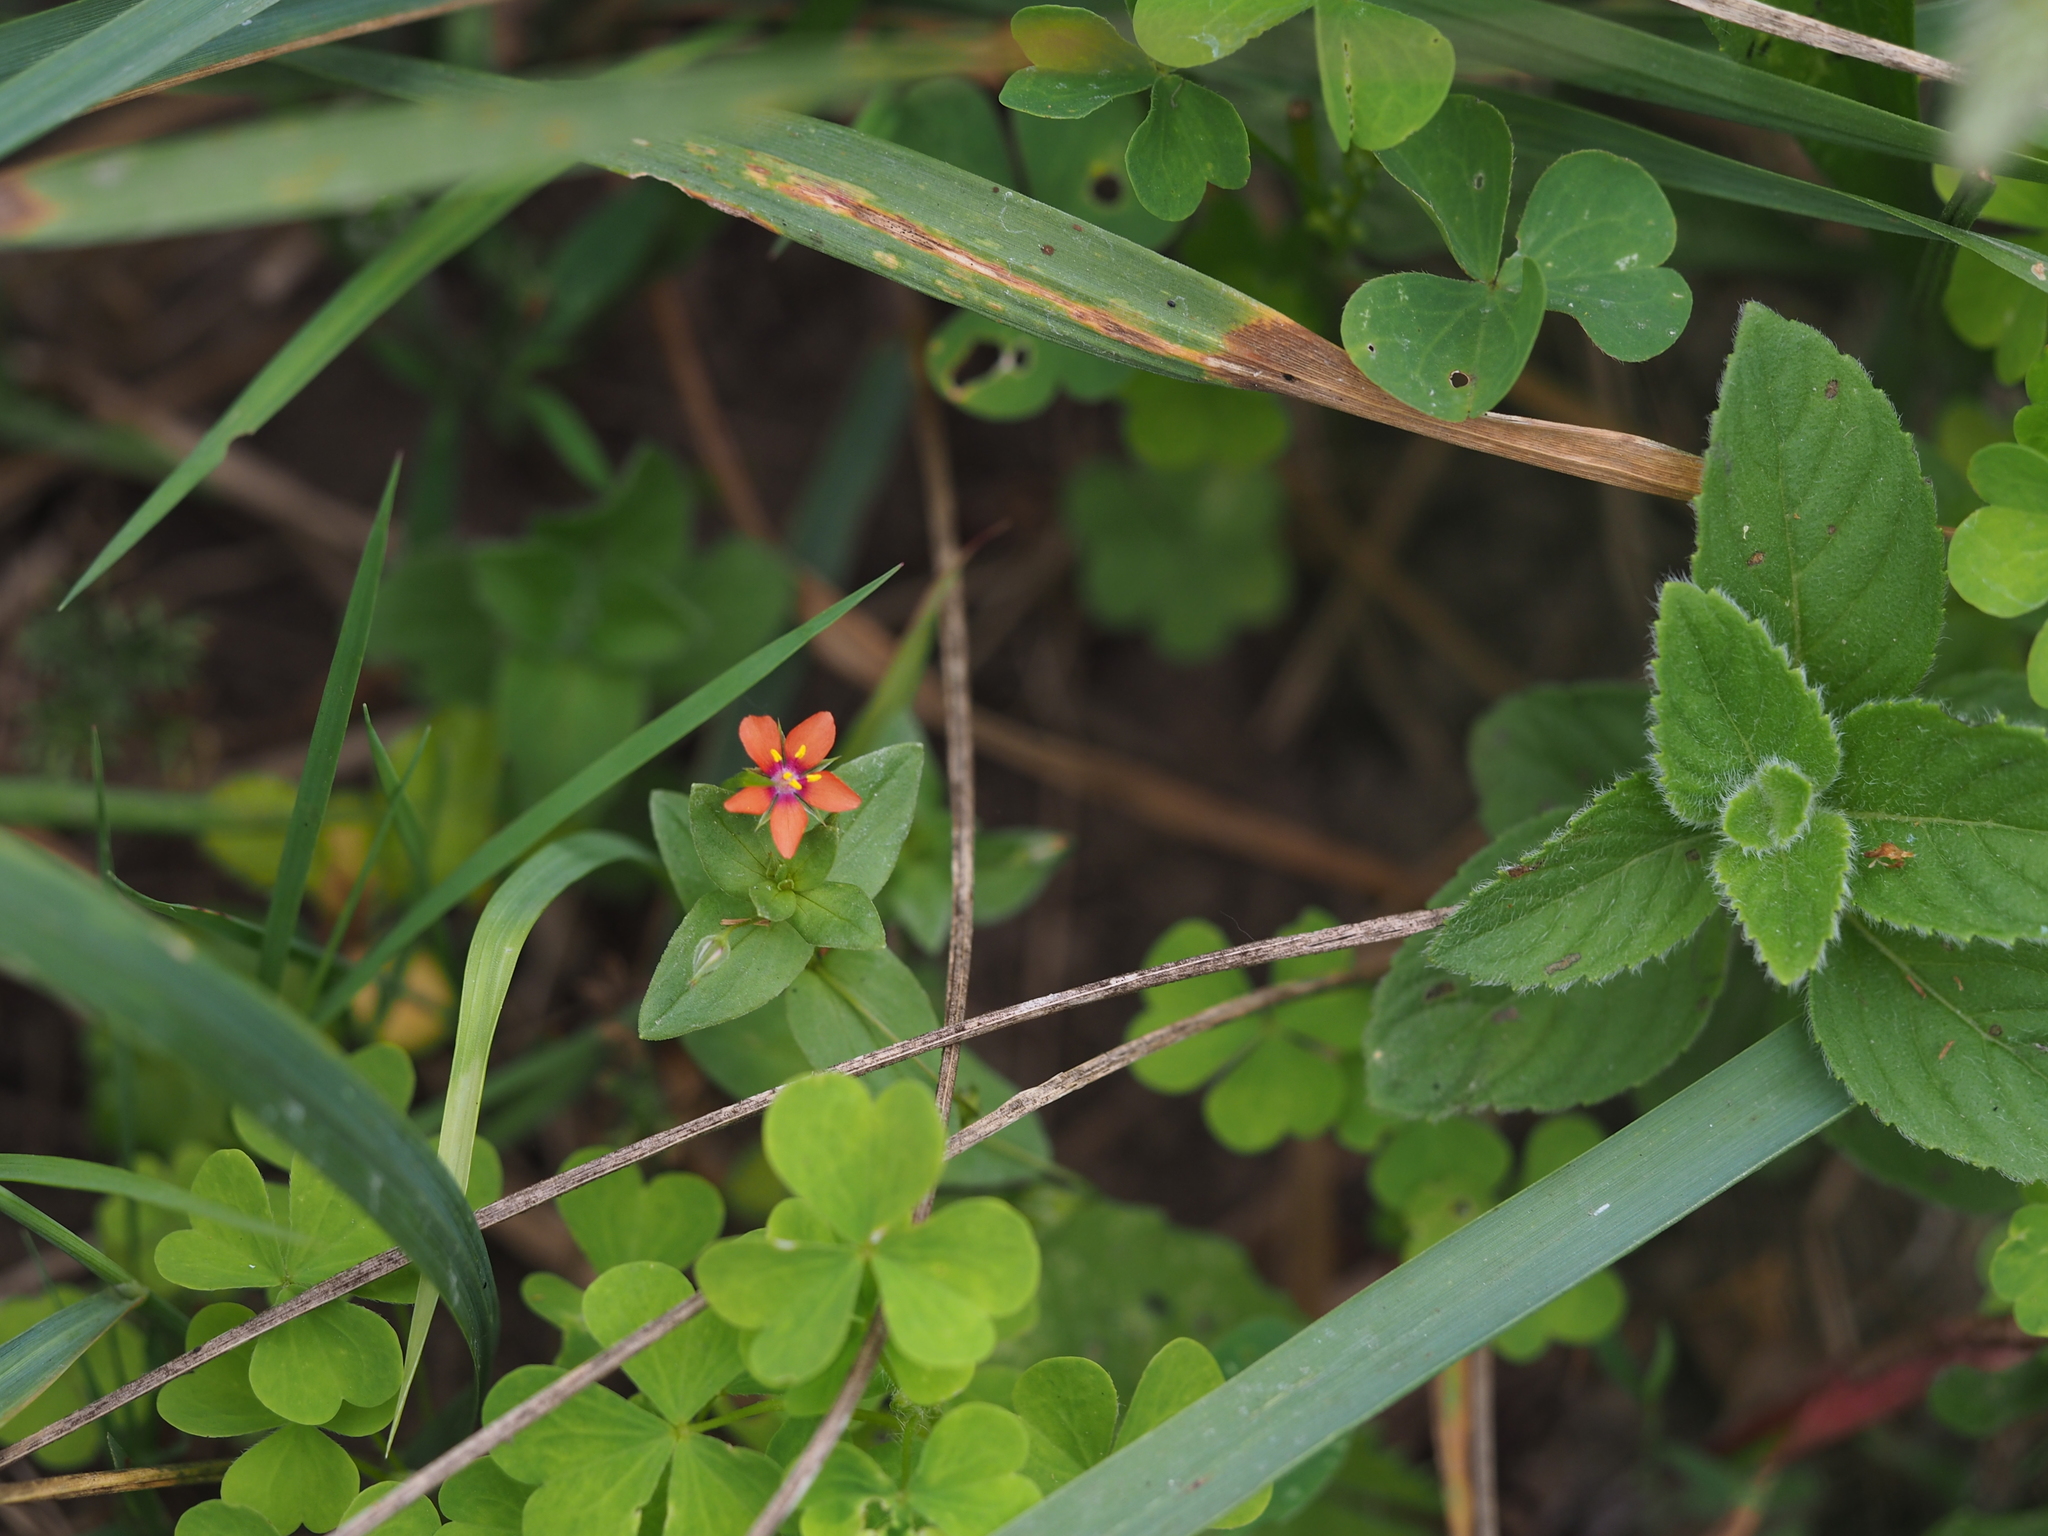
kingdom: Plantae
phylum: Tracheophyta
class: Magnoliopsida
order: Ericales
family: Primulaceae
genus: Lysimachia
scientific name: Lysimachia arvensis
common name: Scarlet pimpernel
